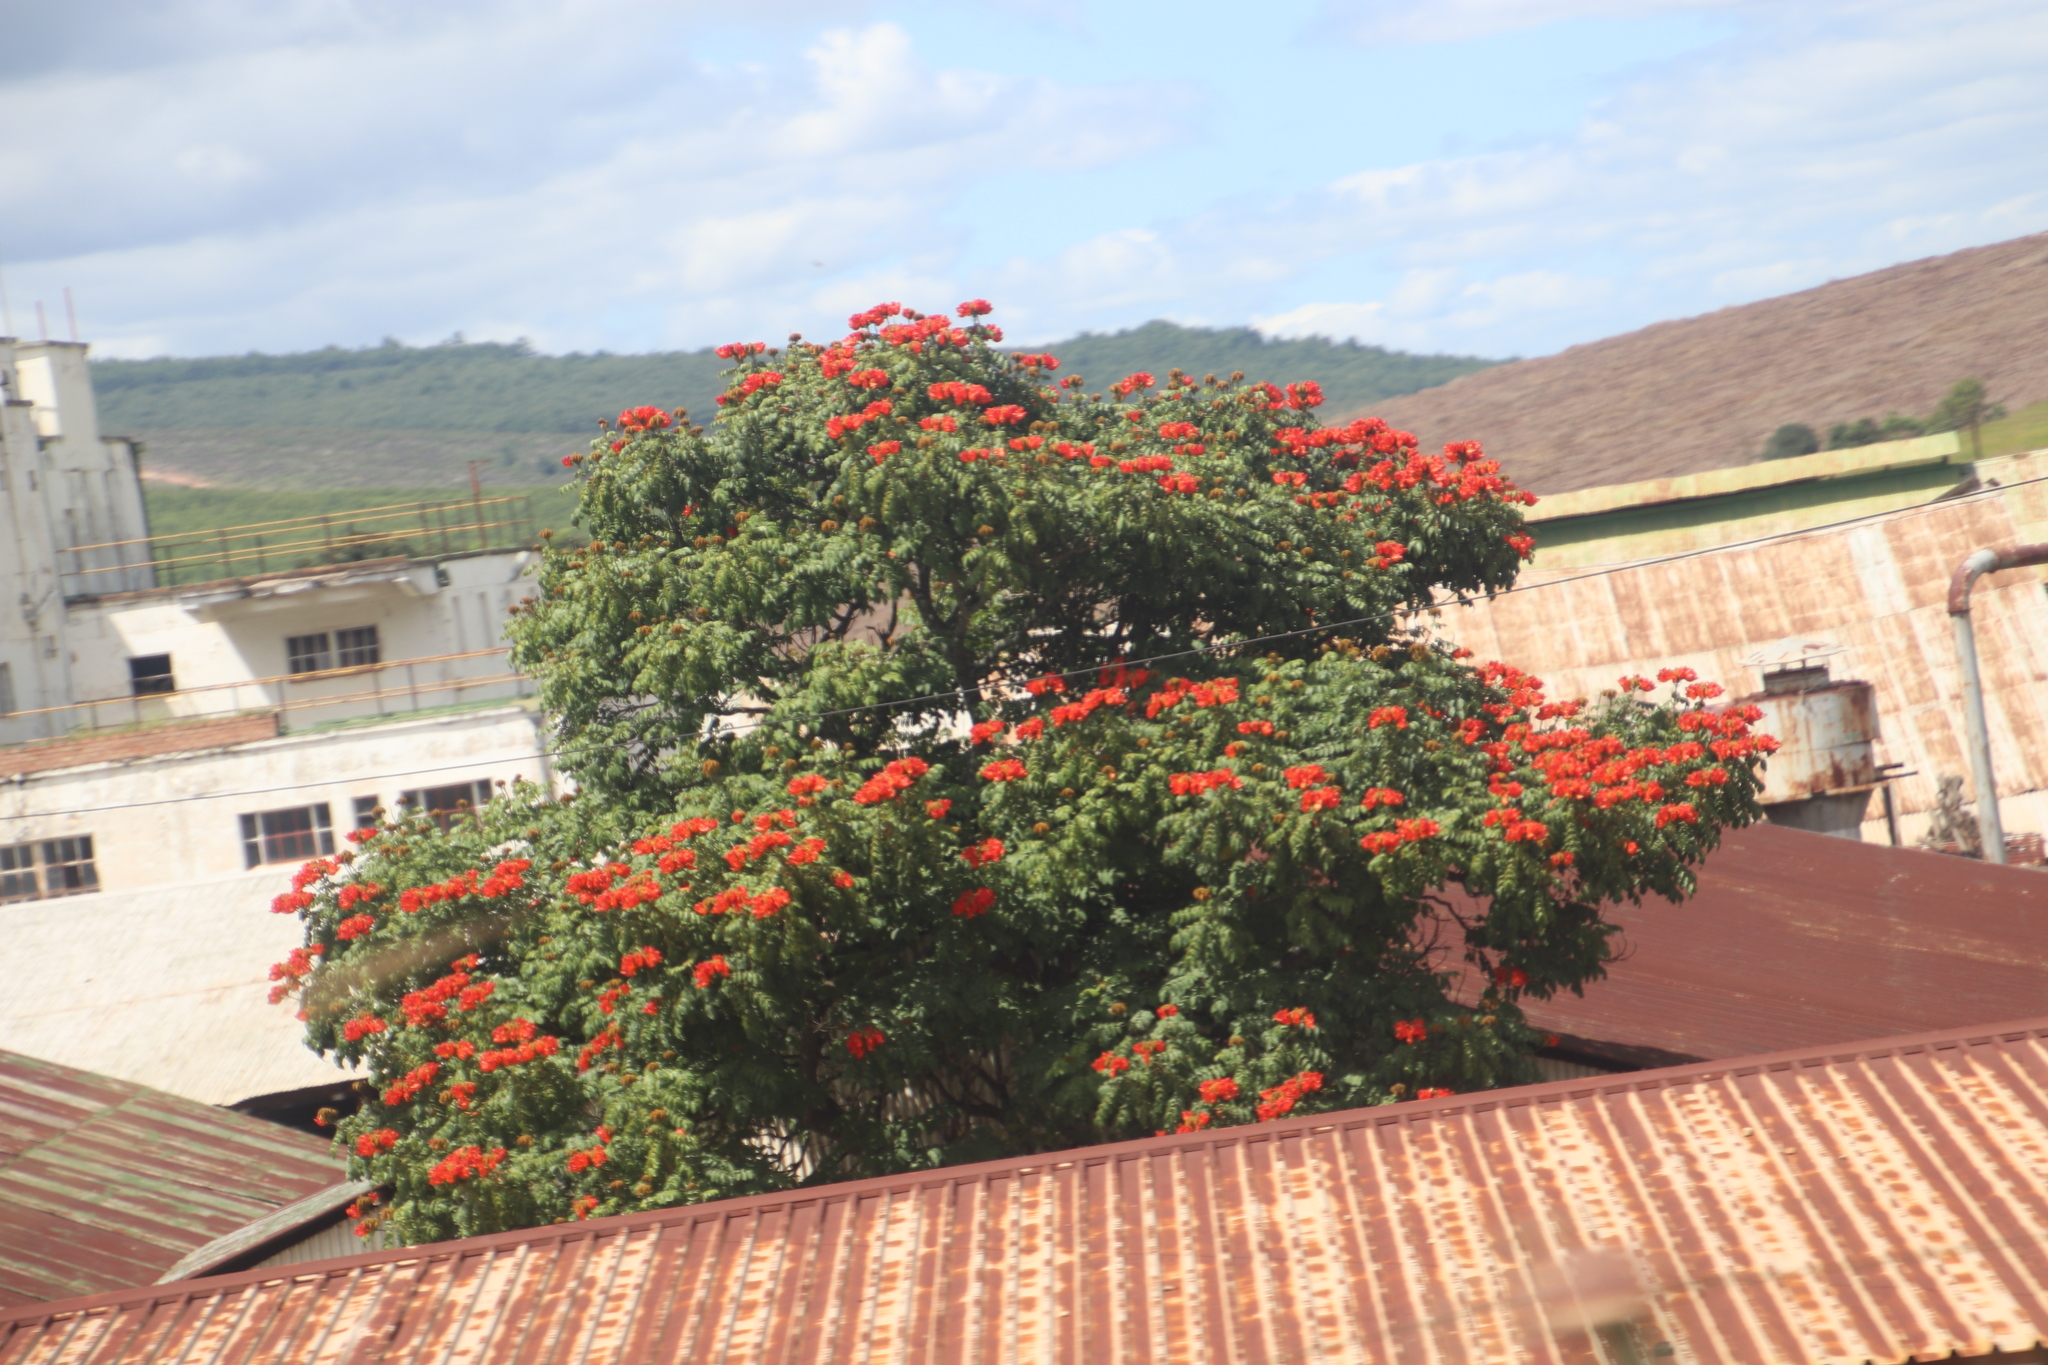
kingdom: Plantae
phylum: Tracheophyta
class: Magnoliopsida
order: Lamiales
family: Bignoniaceae
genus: Spathodea
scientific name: Spathodea campanulata
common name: African tuliptree
